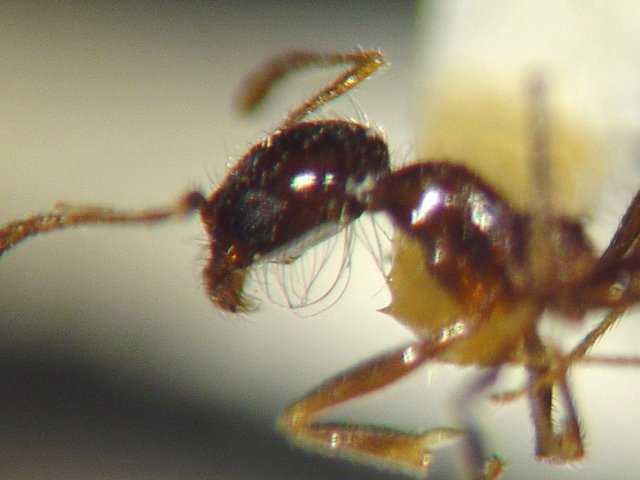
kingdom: Animalia
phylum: Arthropoda
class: Insecta
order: Hymenoptera
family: Formicidae
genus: Pheidole
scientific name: Pheidole psammophila
